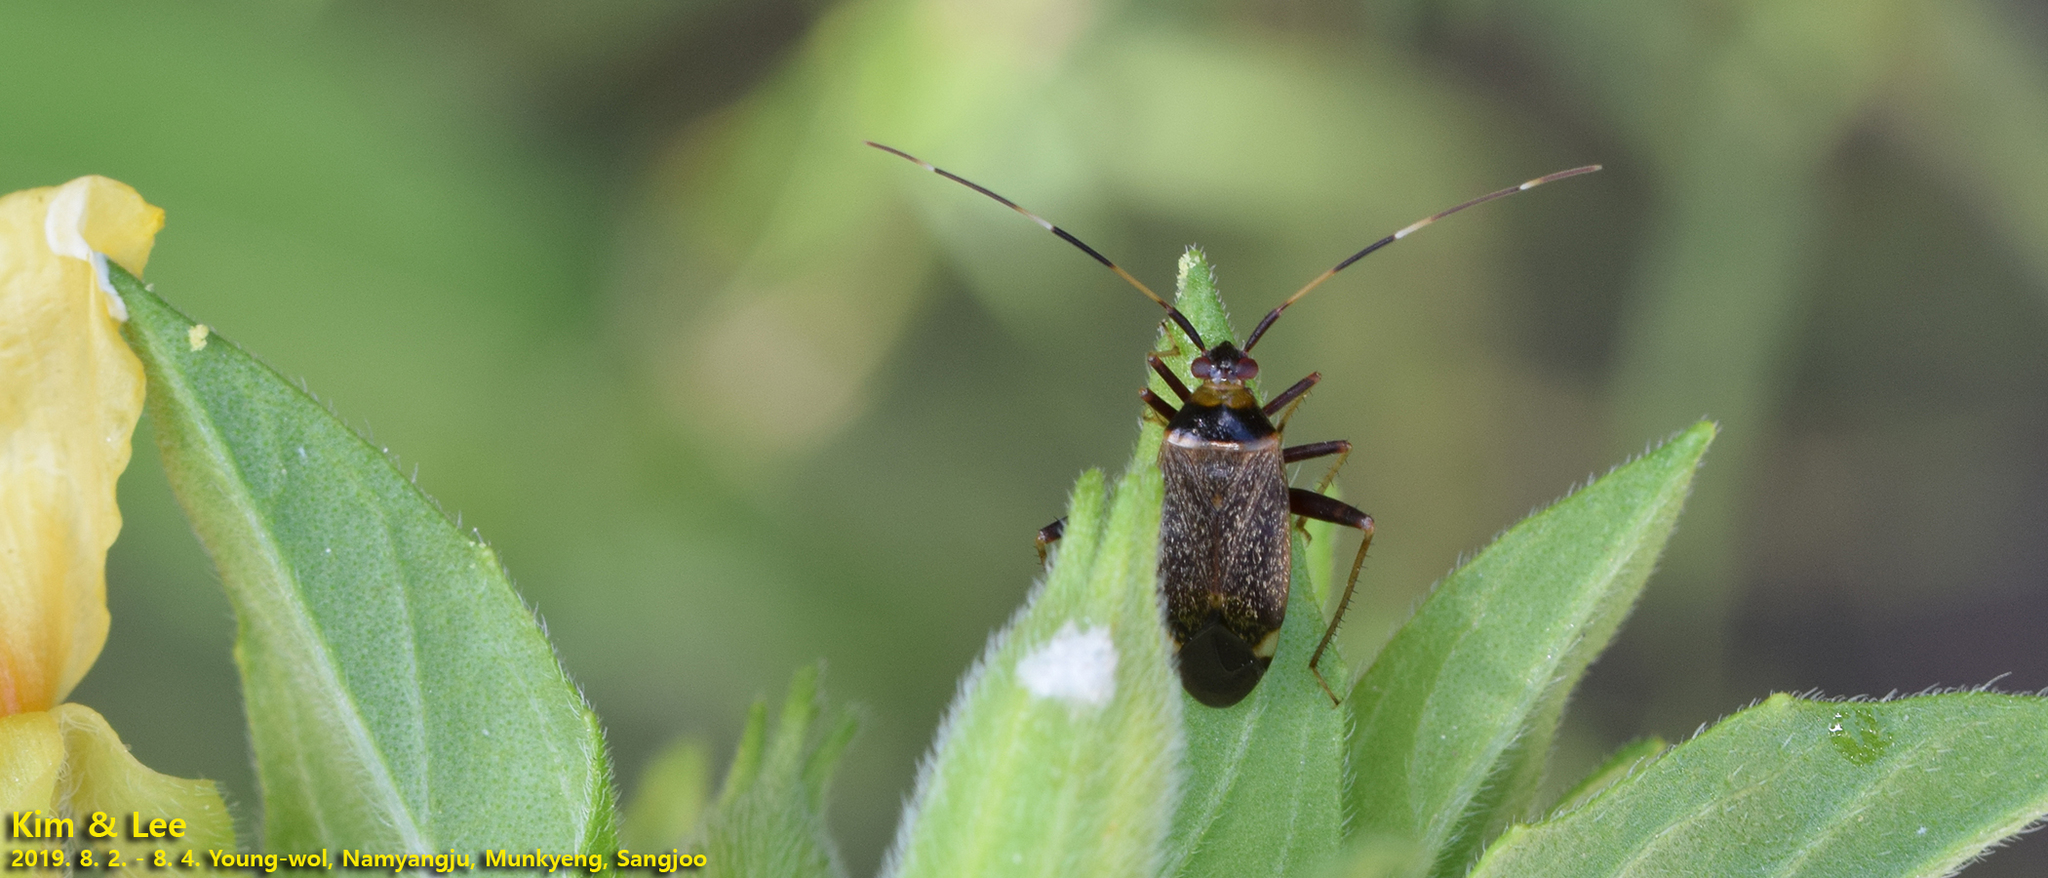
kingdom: Animalia
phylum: Arthropoda
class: Insecta
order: Hemiptera
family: Miridae
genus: Adelphocoris
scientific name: Adelphocoris triannulatus
